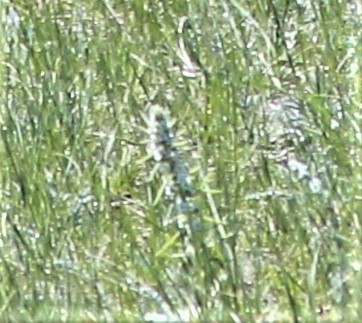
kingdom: Plantae
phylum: Tracheophyta
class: Magnoliopsida
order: Boraginales
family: Boraginaceae
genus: Oreocarya
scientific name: Oreocarya virgata
